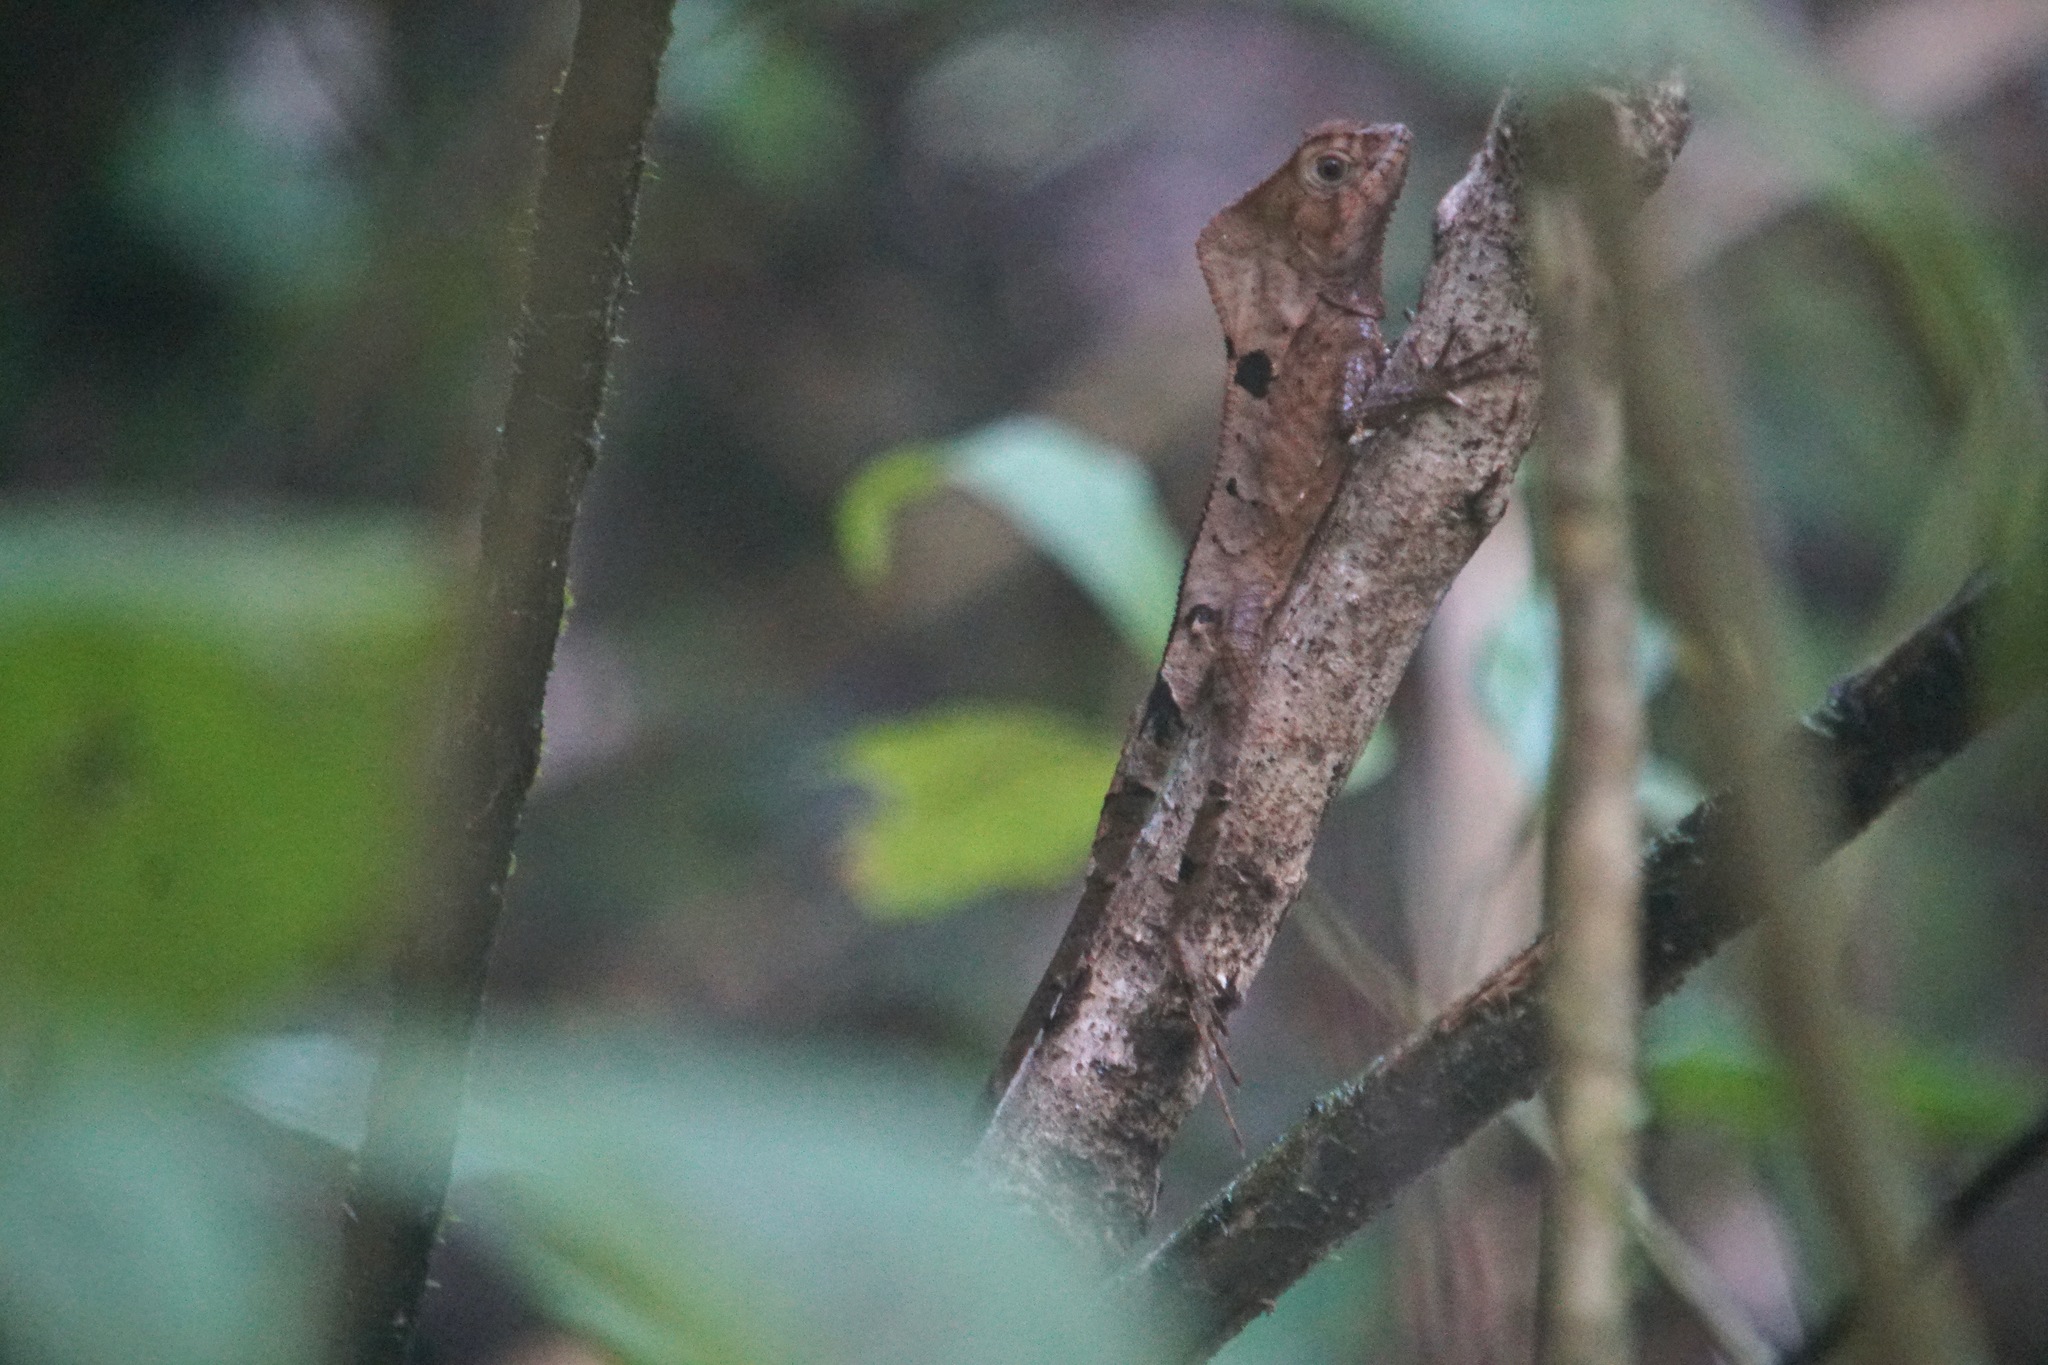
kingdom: Animalia
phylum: Chordata
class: Squamata
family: Corytophanidae
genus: Corytophanes
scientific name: Corytophanes cristatus
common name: Smooth helmeted iguana
